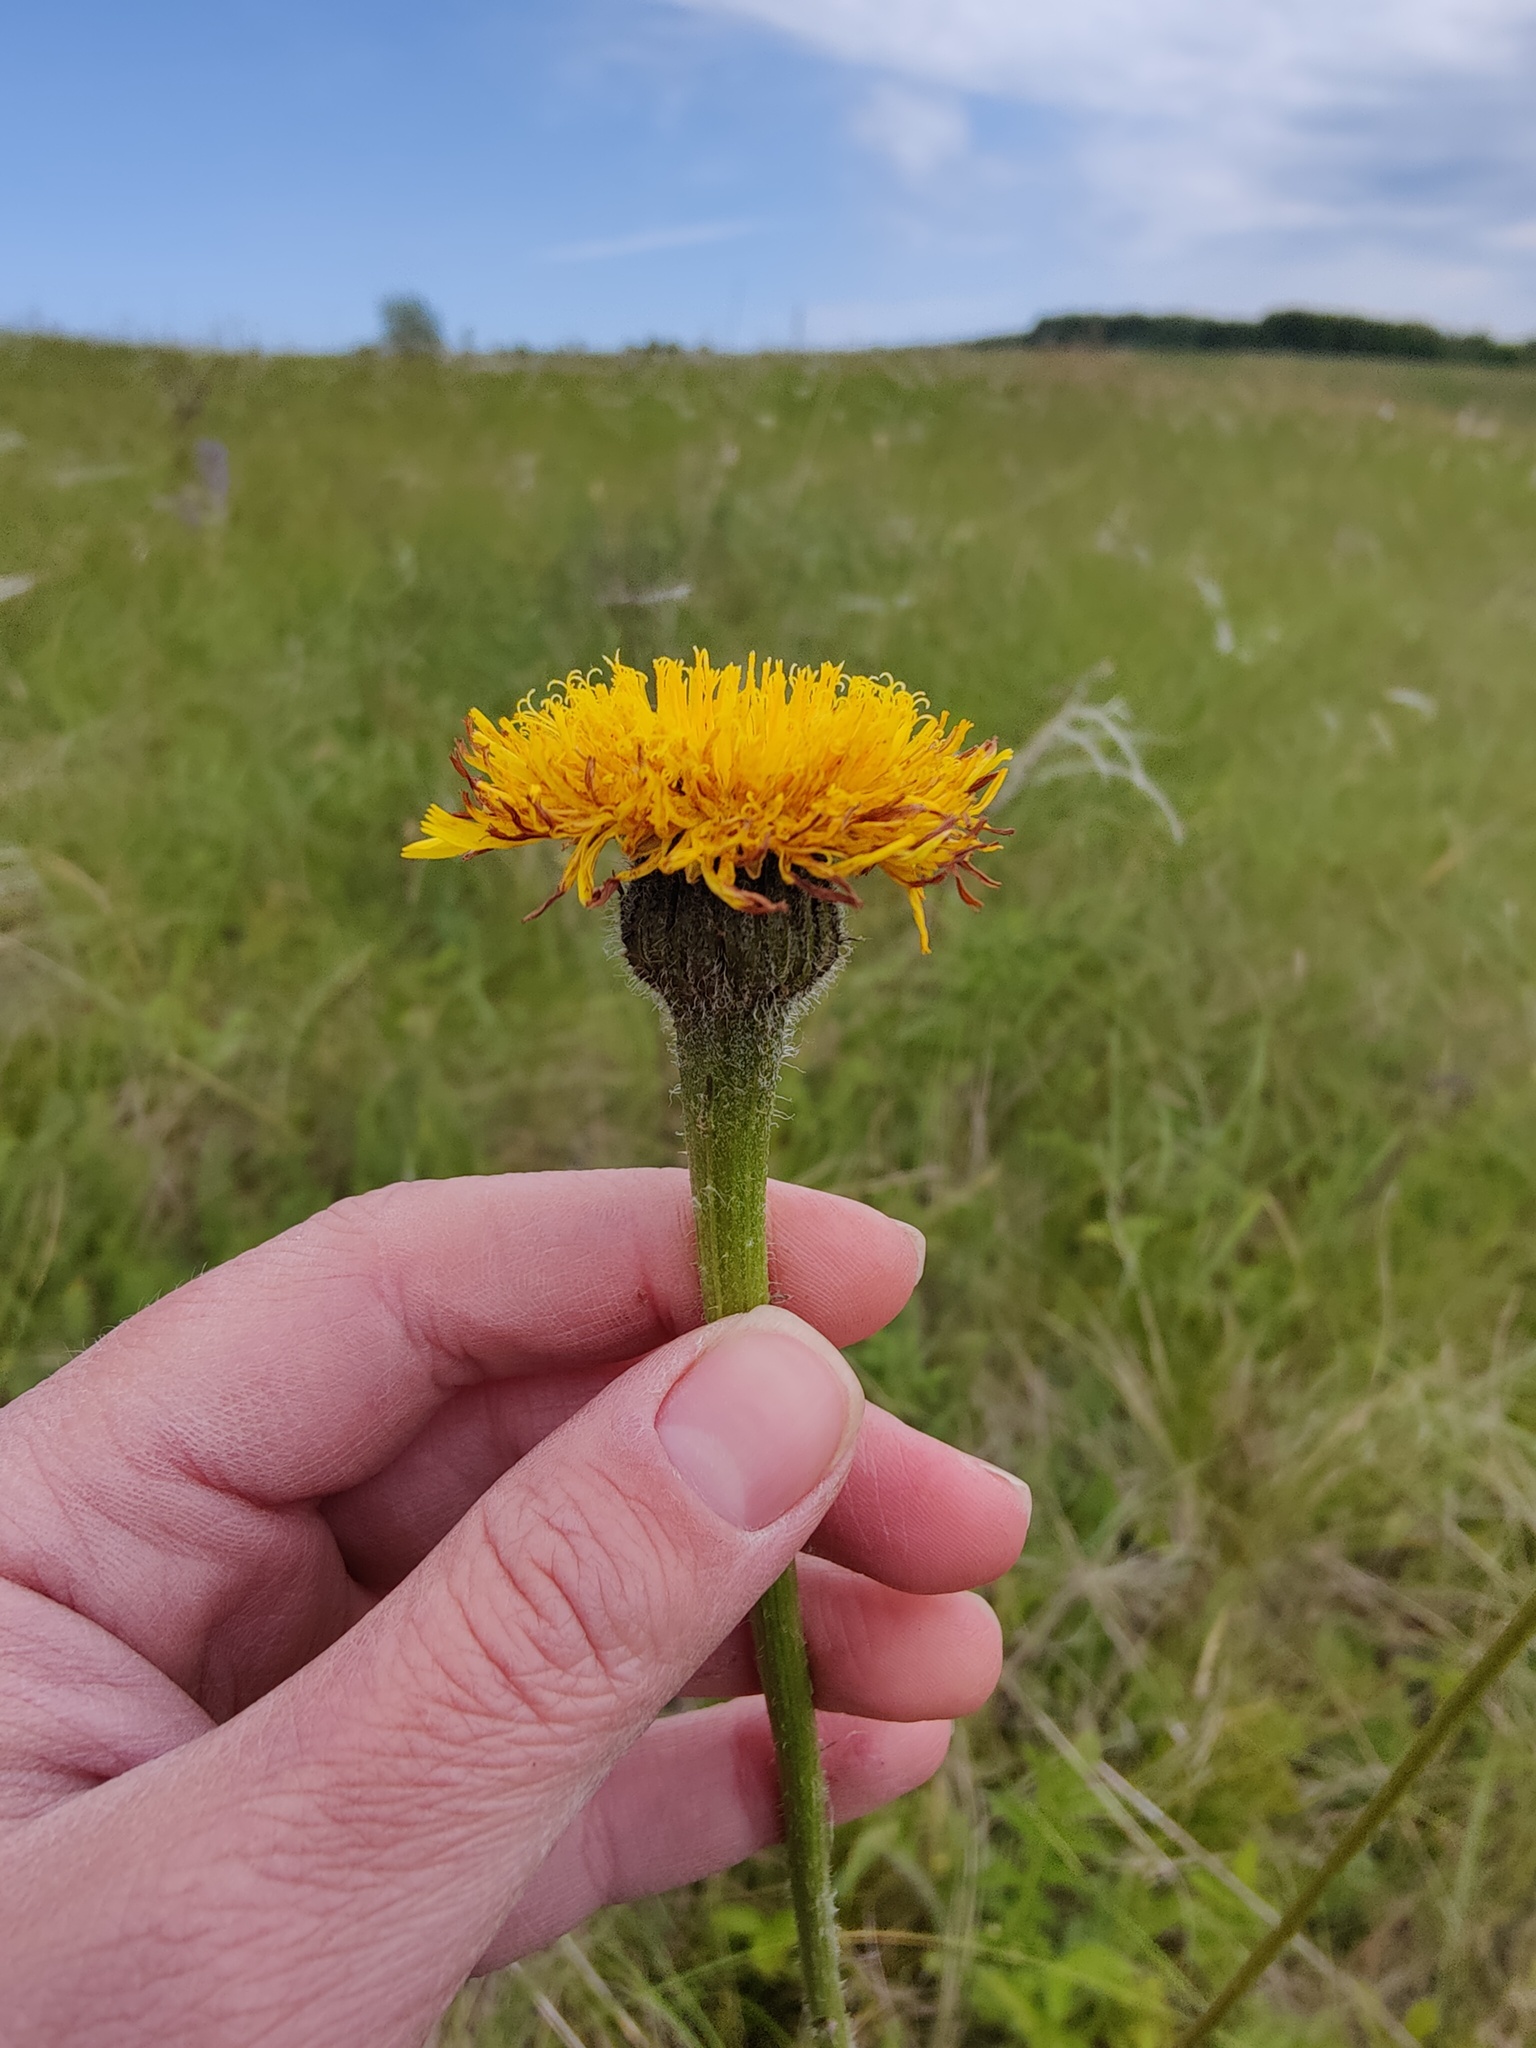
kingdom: Plantae
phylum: Tracheophyta
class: Magnoliopsida
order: Asterales
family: Asteraceae
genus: Trommsdorffia
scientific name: Trommsdorffia maculata
